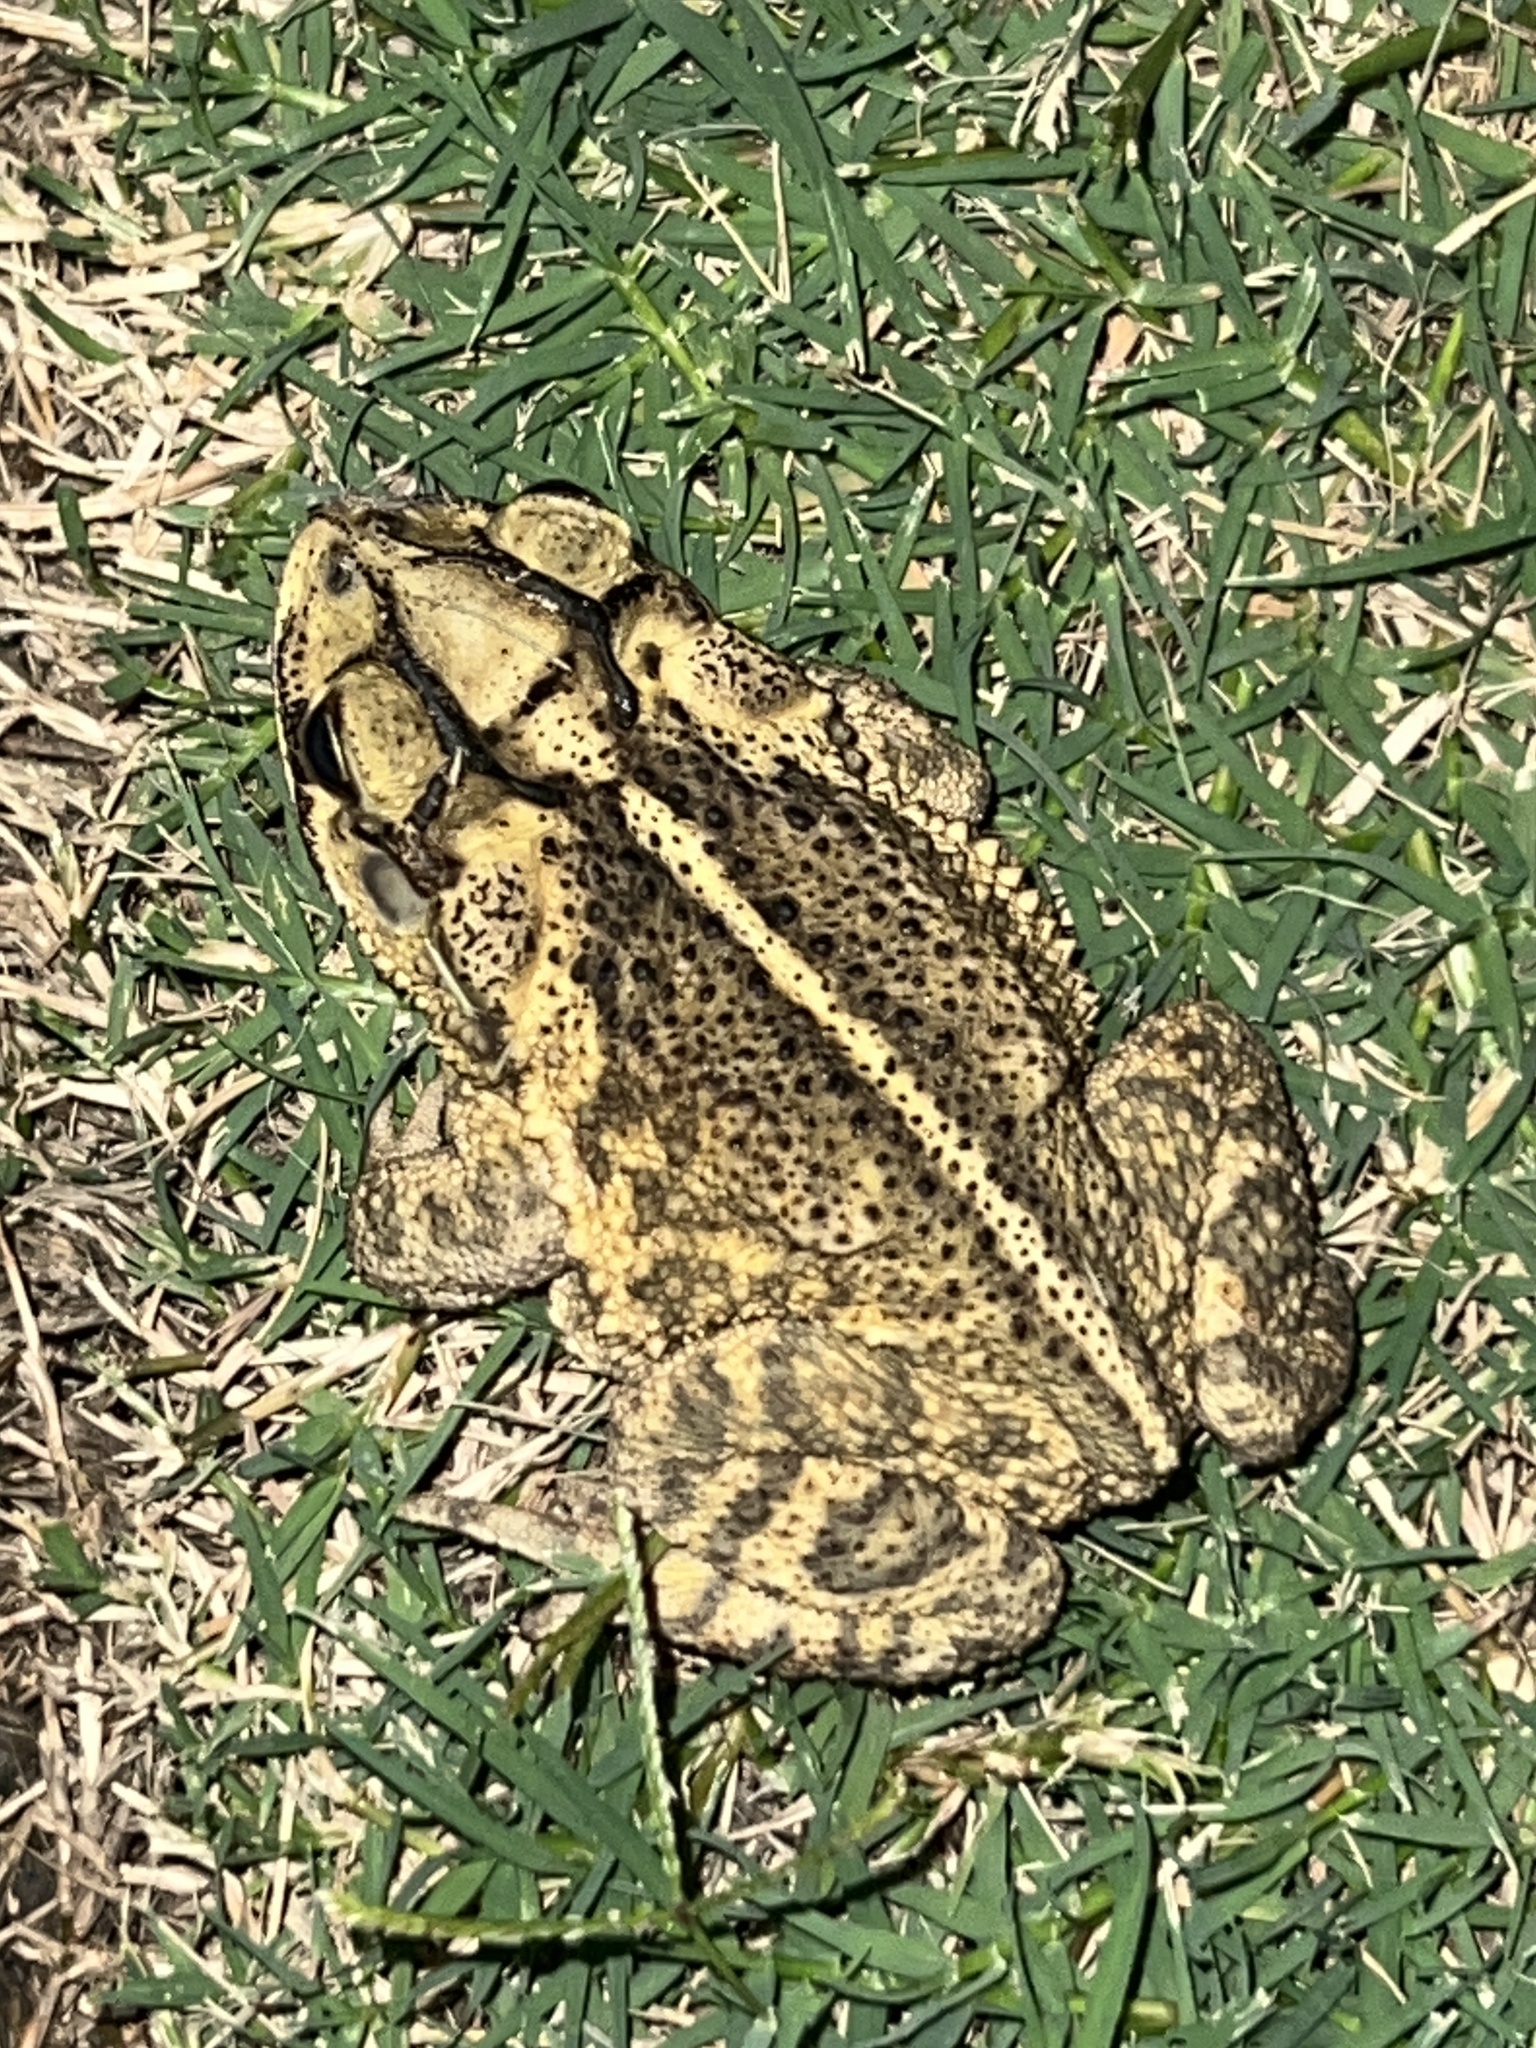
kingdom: Animalia
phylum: Chordata
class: Amphibia
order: Anura
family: Bufonidae
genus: Incilius
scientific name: Incilius nebulifer
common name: Gulf coast toad
